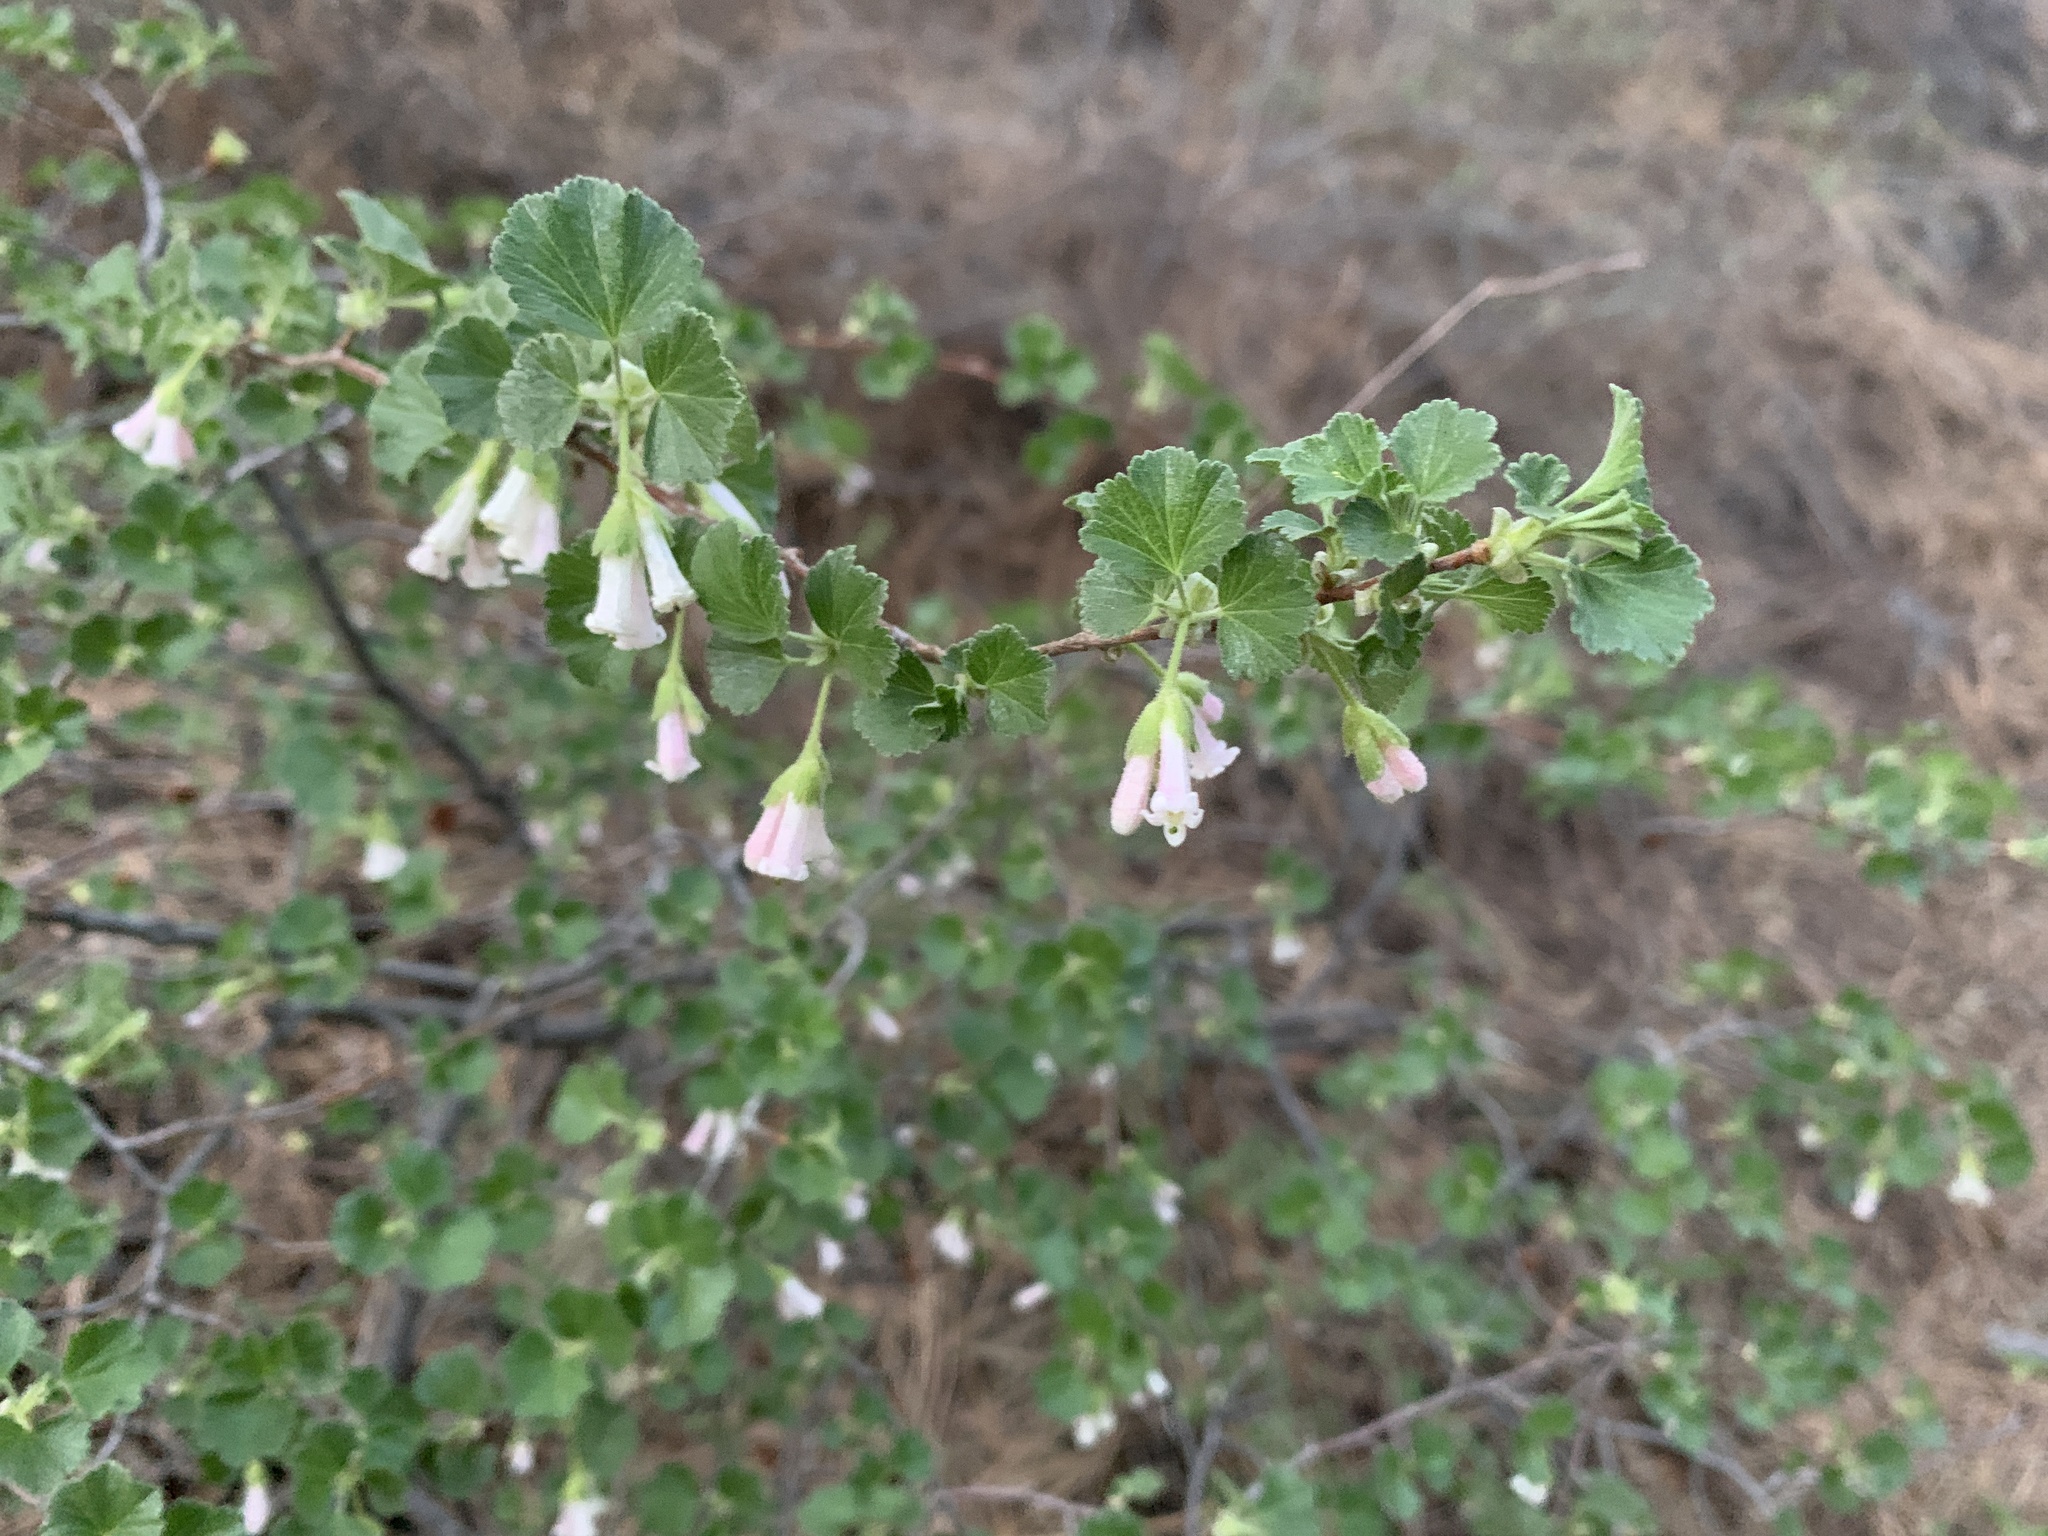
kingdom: Plantae
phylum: Tracheophyta
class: Magnoliopsida
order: Saxifragales
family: Grossulariaceae
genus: Ribes
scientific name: Ribes cereum
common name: Wax currant
